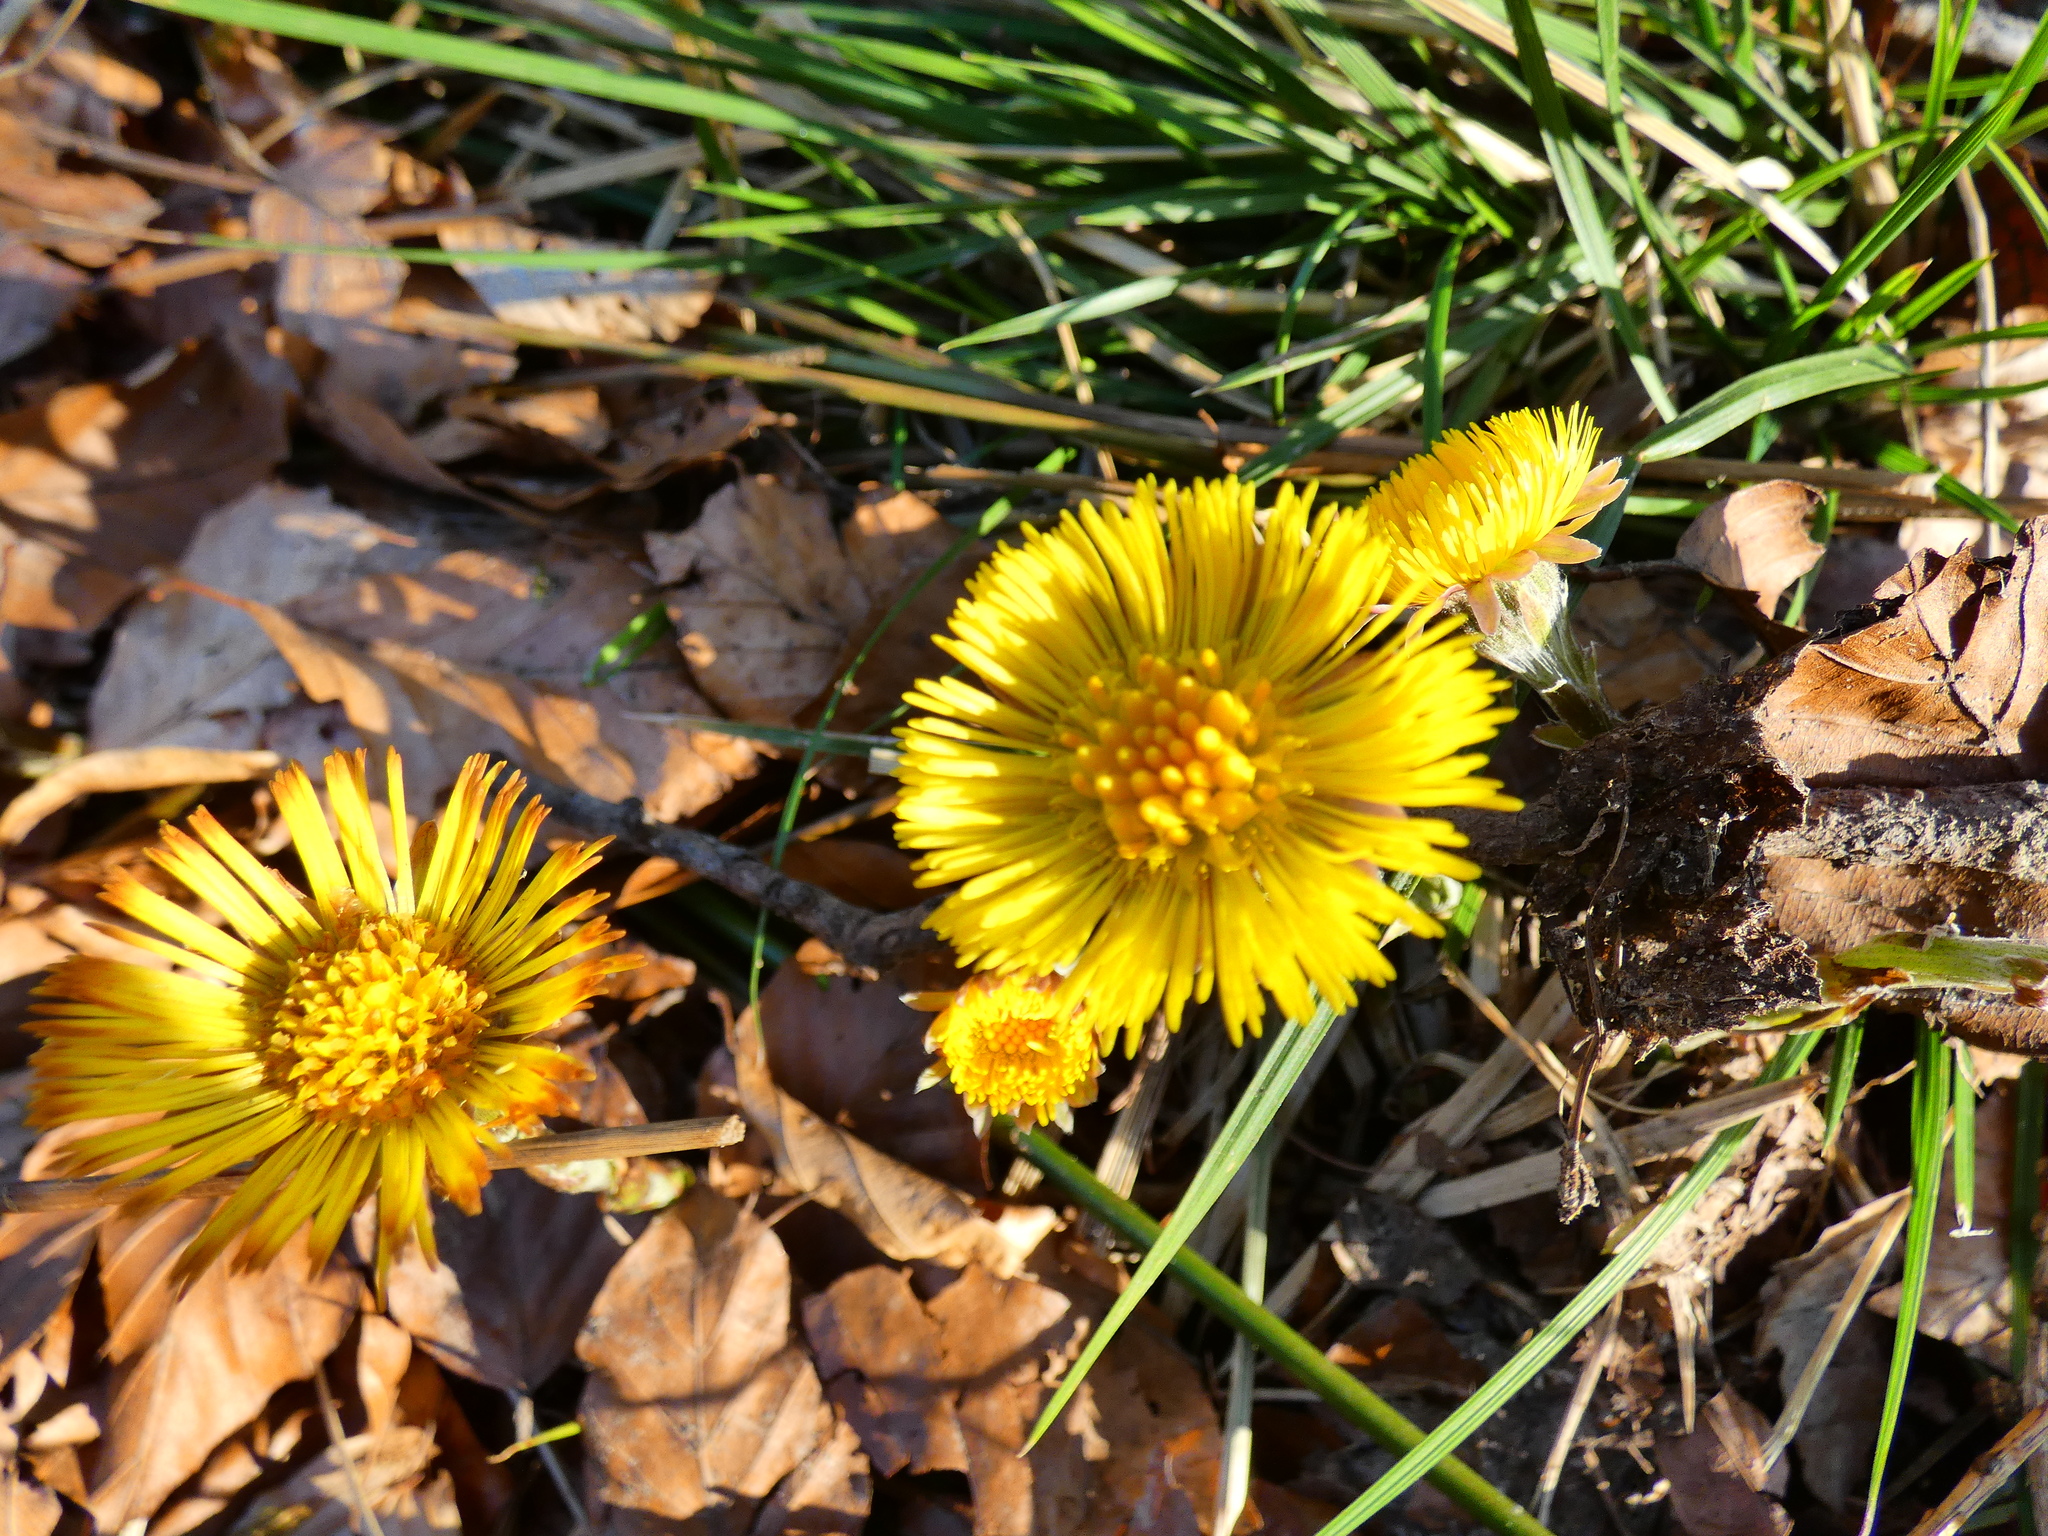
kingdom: Plantae
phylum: Tracheophyta
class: Magnoliopsida
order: Asterales
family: Asteraceae
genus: Tussilago
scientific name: Tussilago farfara
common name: Coltsfoot
